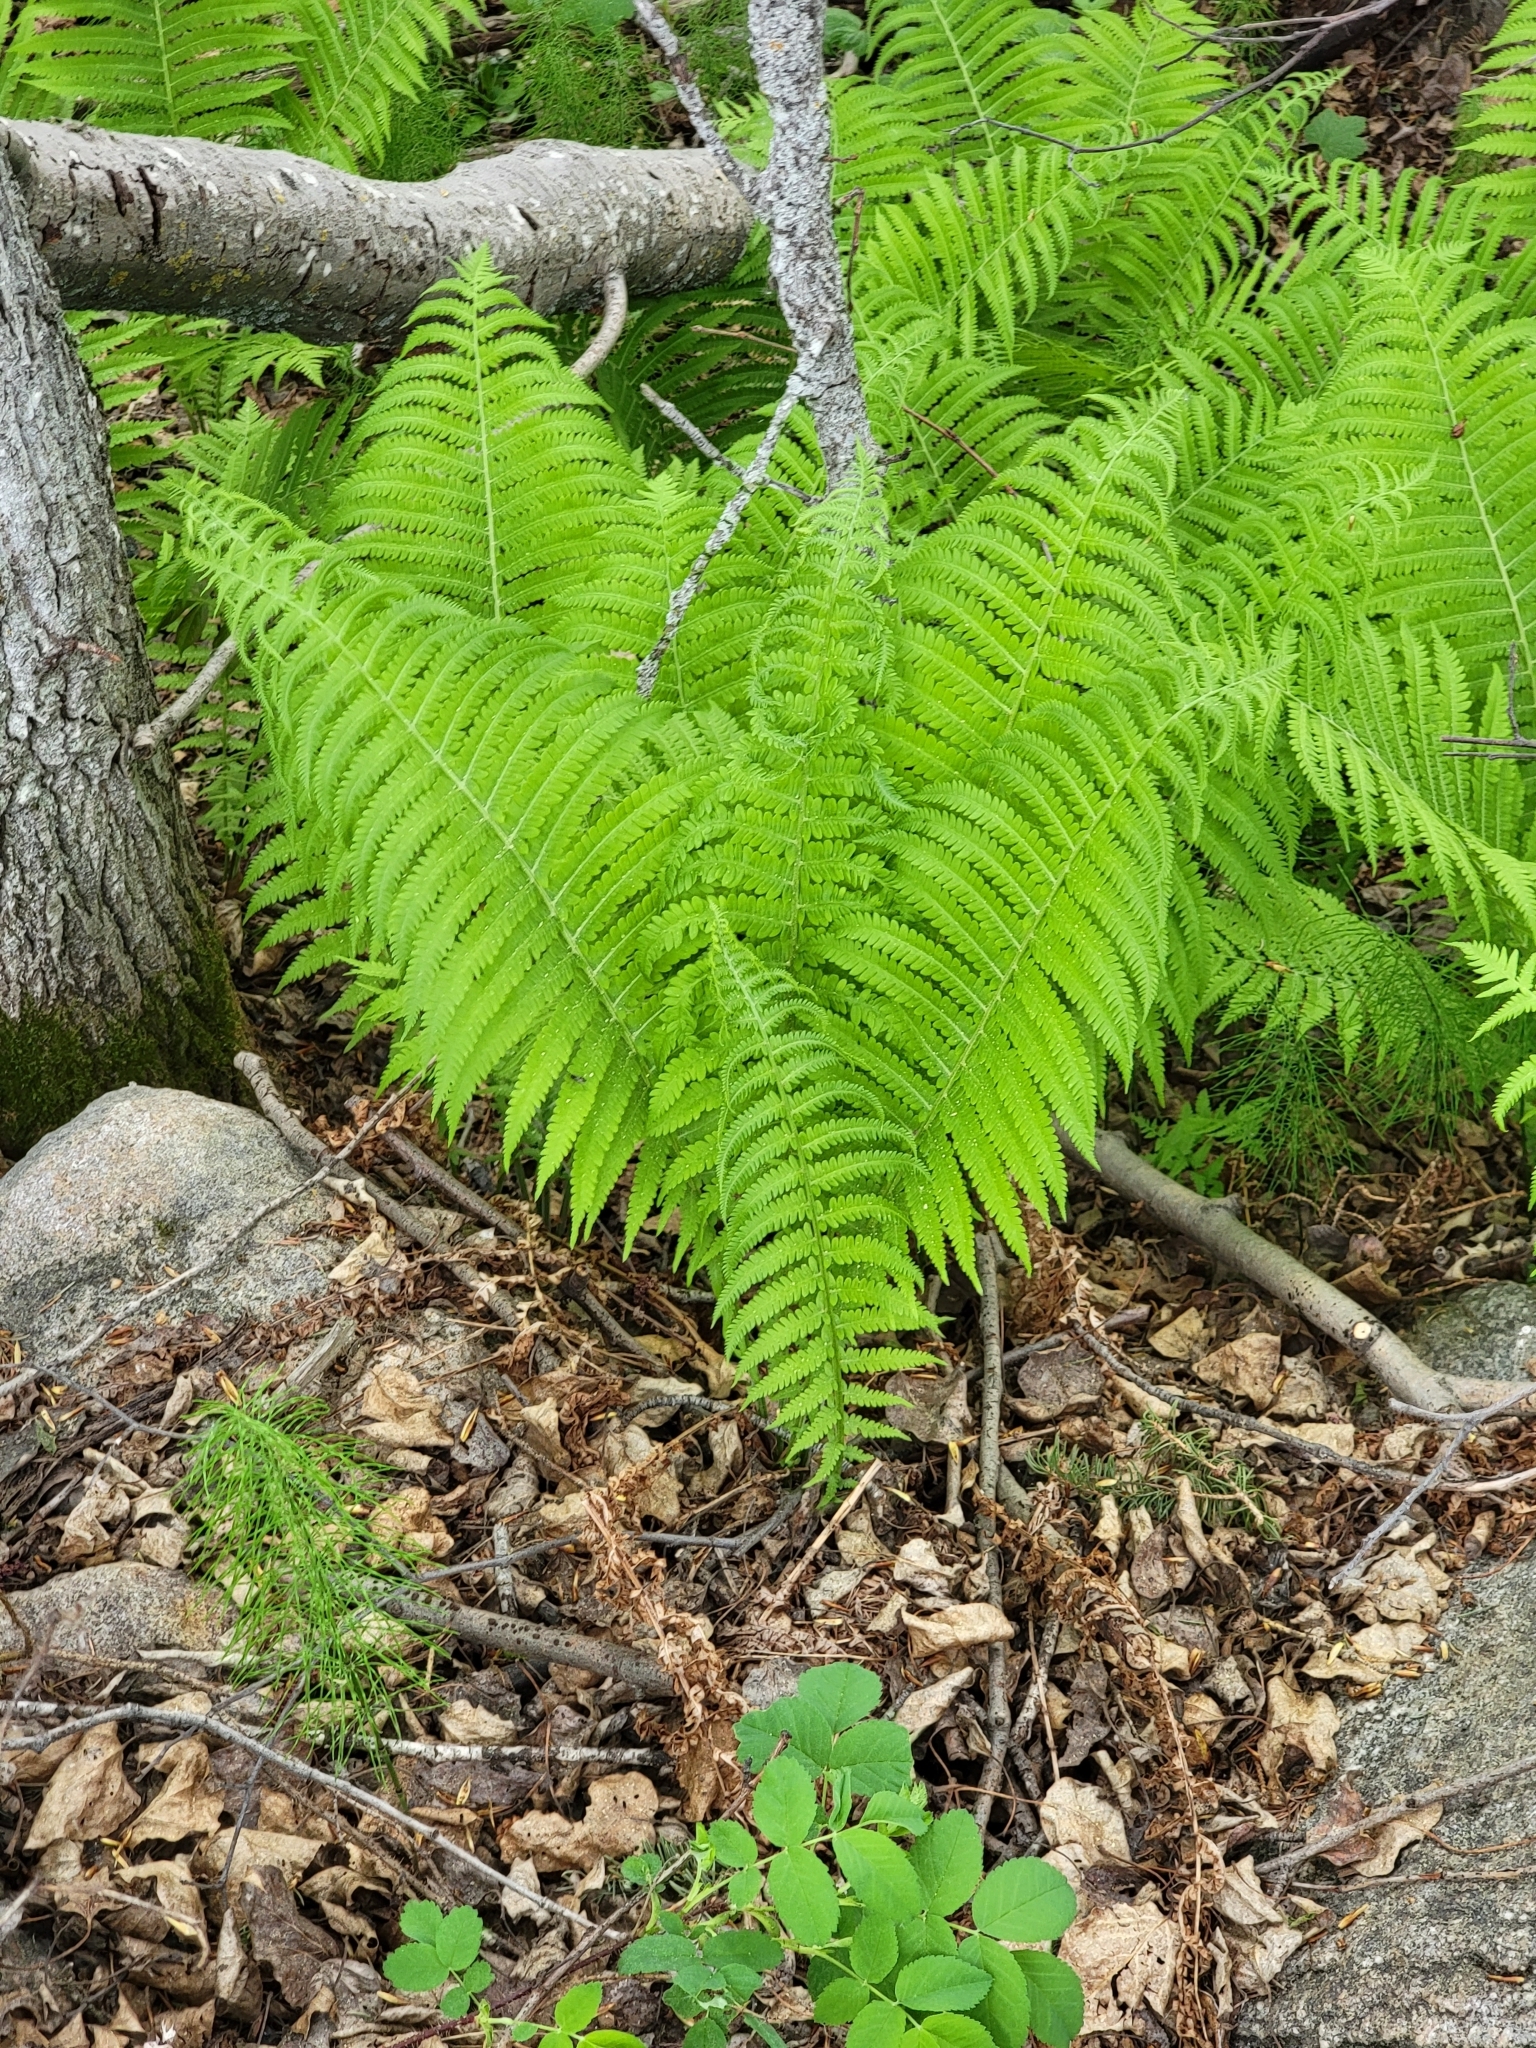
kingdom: Plantae
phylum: Tracheophyta
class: Polypodiopsida
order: Polypodiales
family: Onocleaceae
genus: Matteuccia
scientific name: Matteuccia struthiopteris
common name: Ostrich fern
